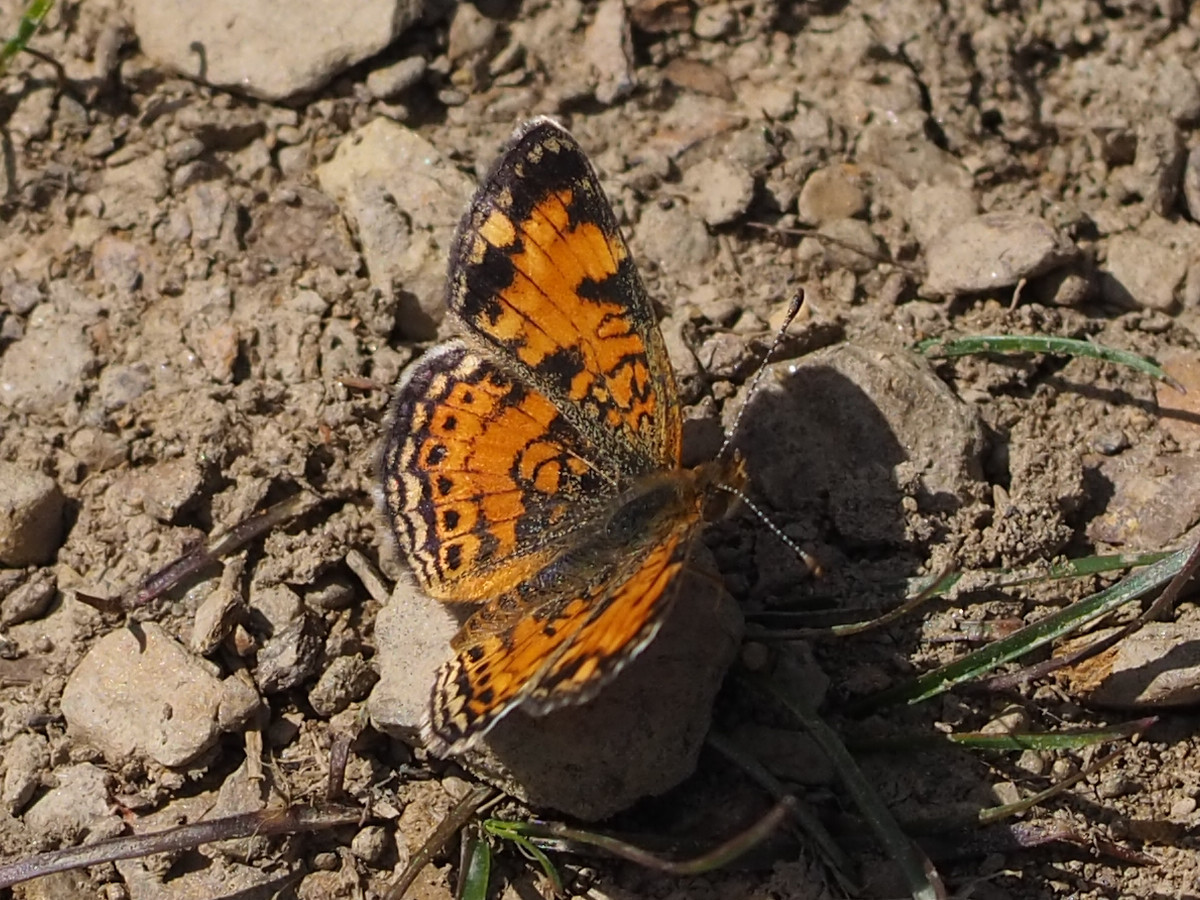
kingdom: Animalia
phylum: Arthropoda
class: Insecta
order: Lepidoptera
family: Nymphalidae
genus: Phyciodes
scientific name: Phyciodes tharos
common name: Pearl crescent
